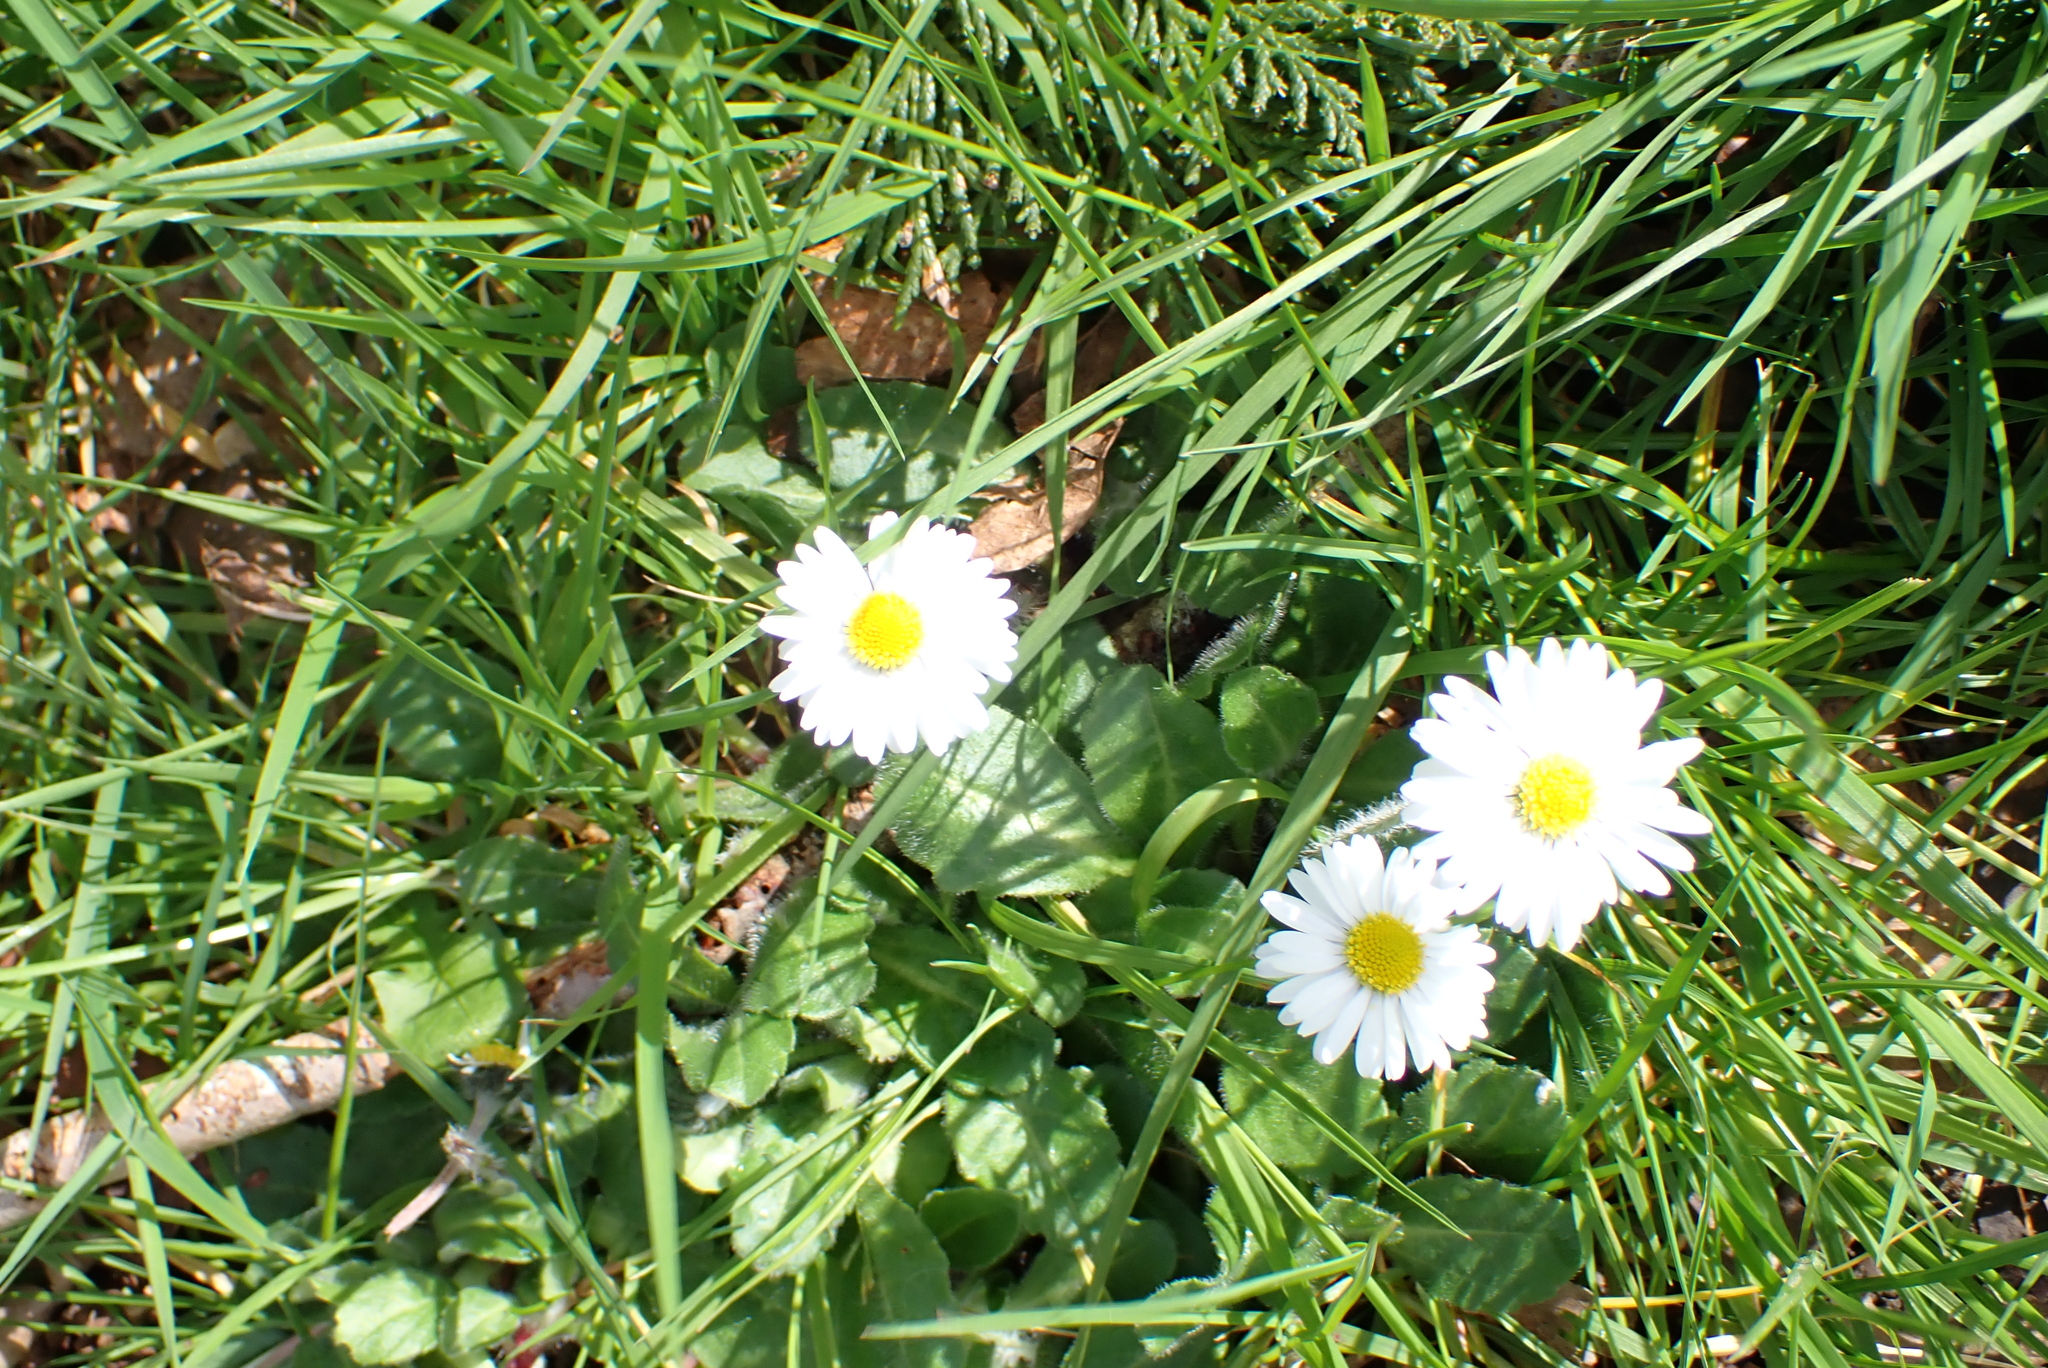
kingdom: Plantae
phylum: Tracheophyta
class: Magnoliopsida
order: Asterales
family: Asteraceae
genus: Bellis
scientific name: Bellis perennis
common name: Lawndaisy
